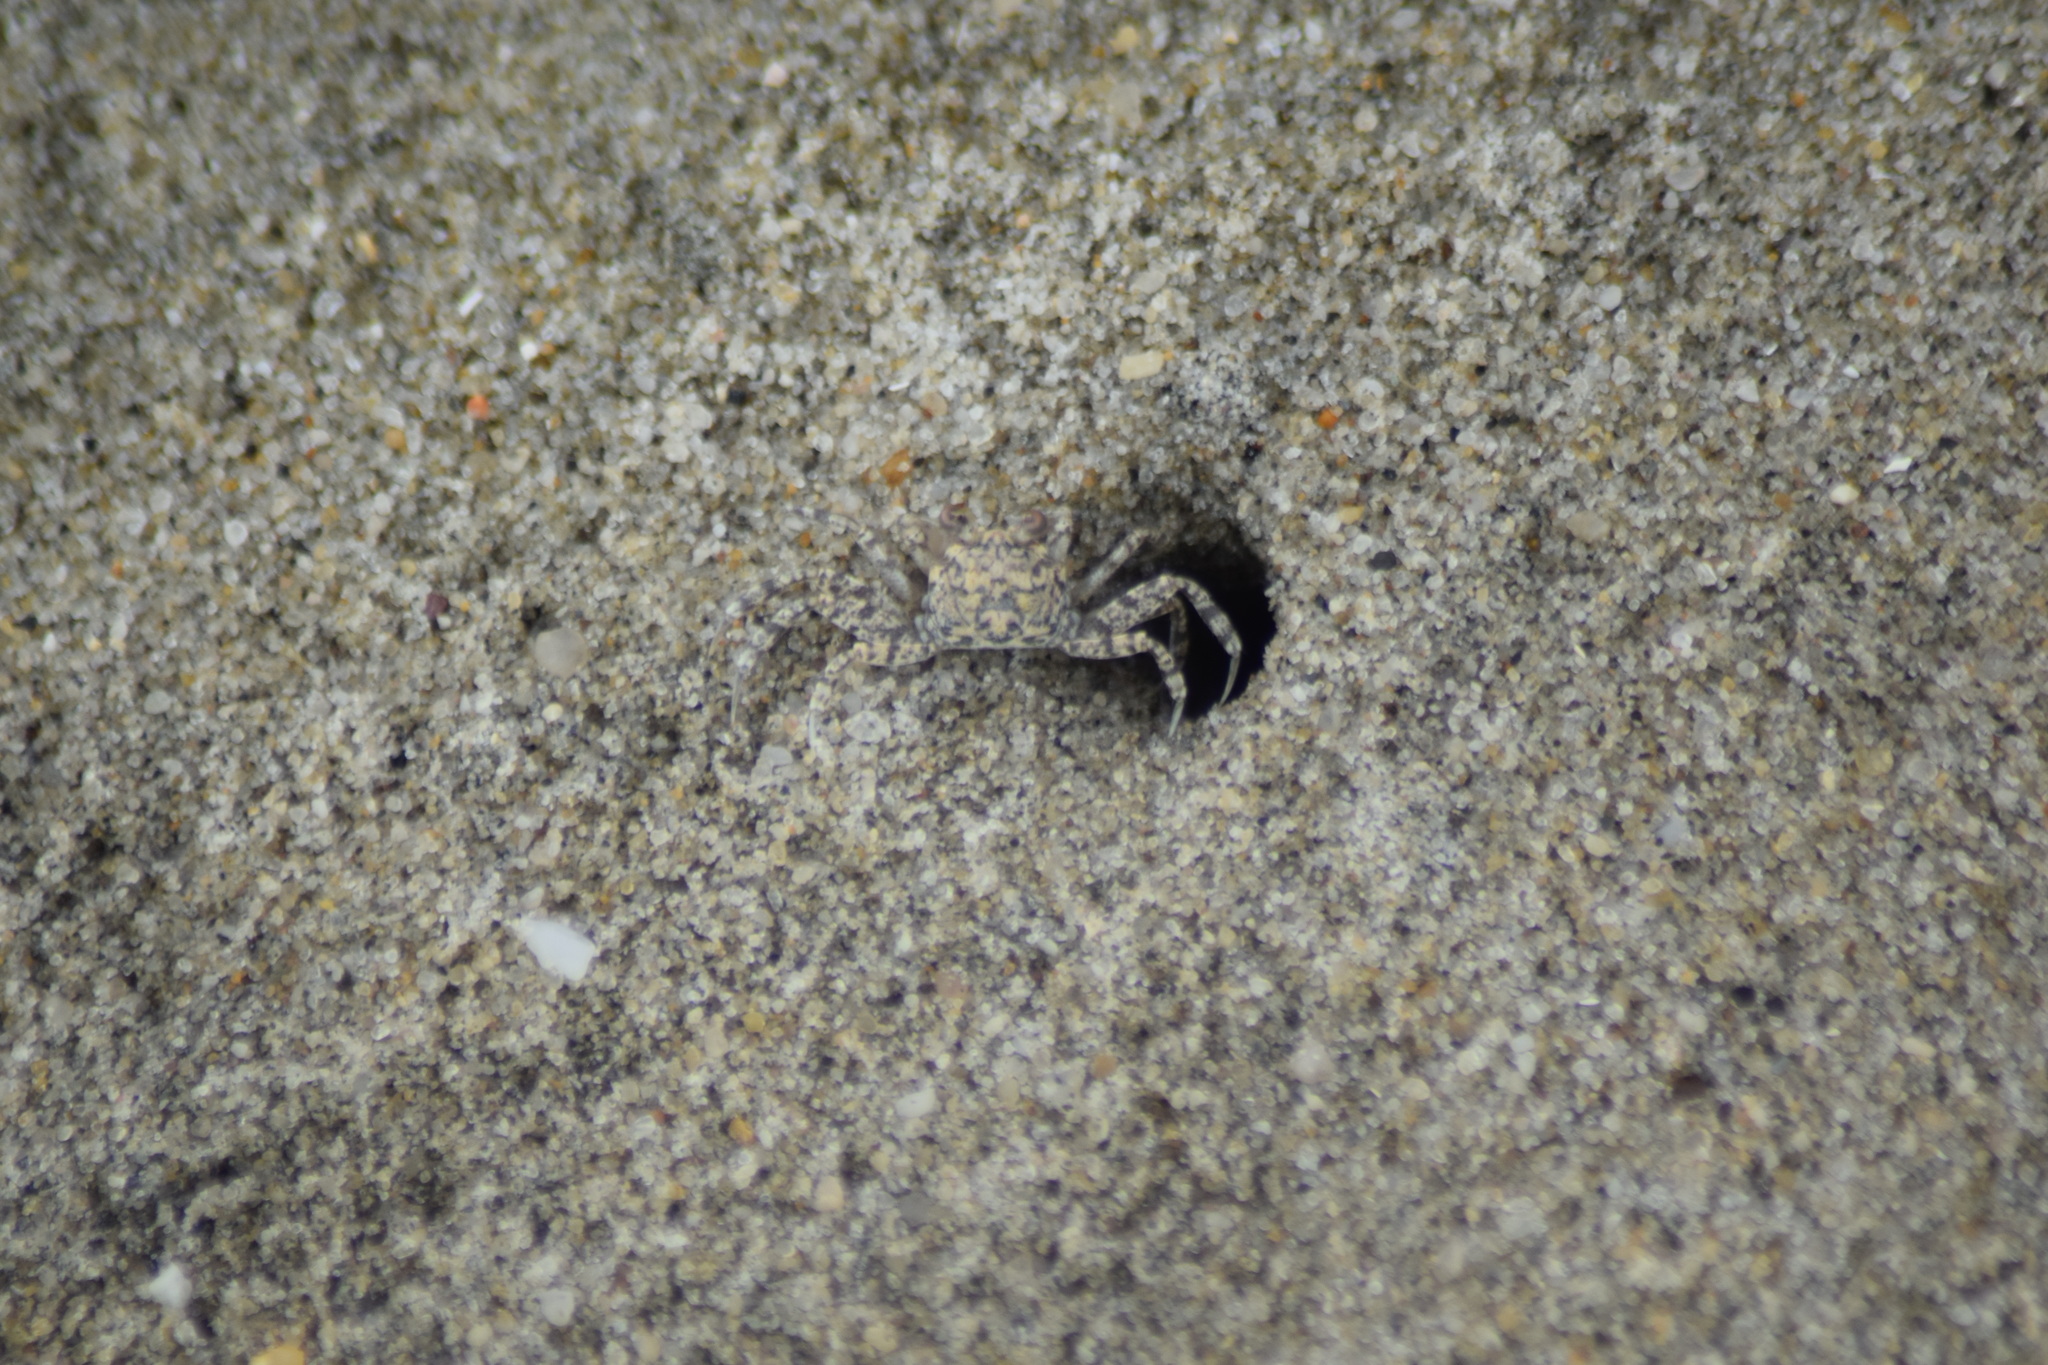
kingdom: Animalia
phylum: Arthropoda
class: Malacostraca
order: Decapoda
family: Ocypodidae
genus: Ocypode
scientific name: Ocypode quadrata
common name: Ghost crab
